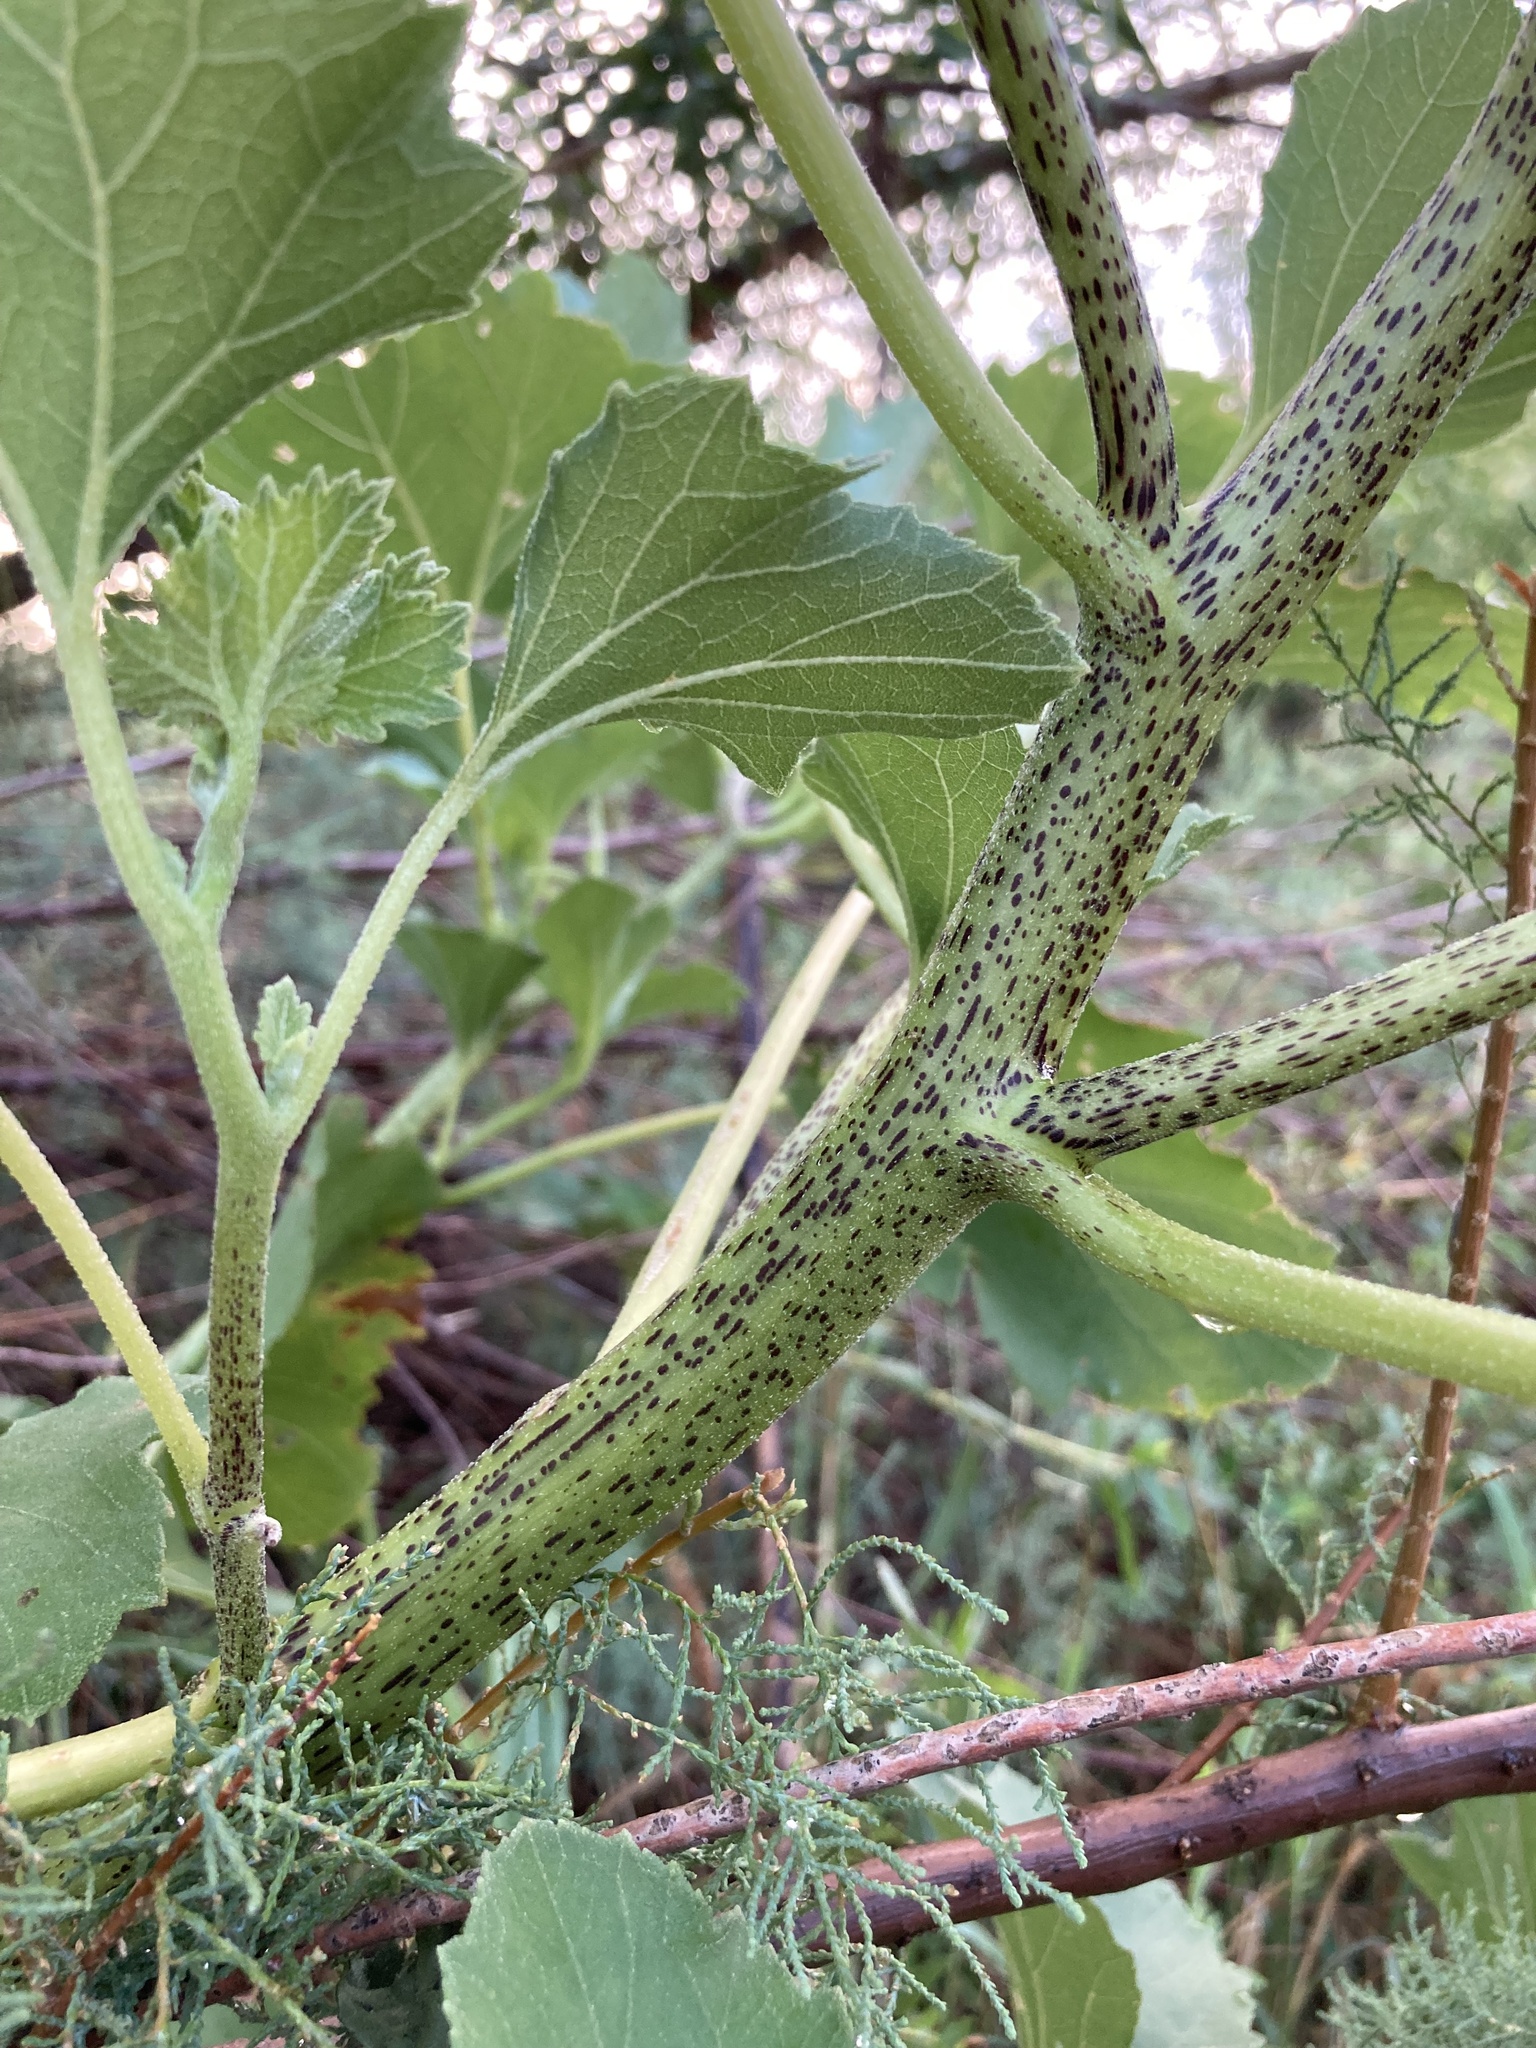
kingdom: Plantae
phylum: Tracheophyta
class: Magnoliopsida
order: Asterales
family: Asteraceae
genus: Xanthium
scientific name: Xanthium strumarium
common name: Rough cocklebur
